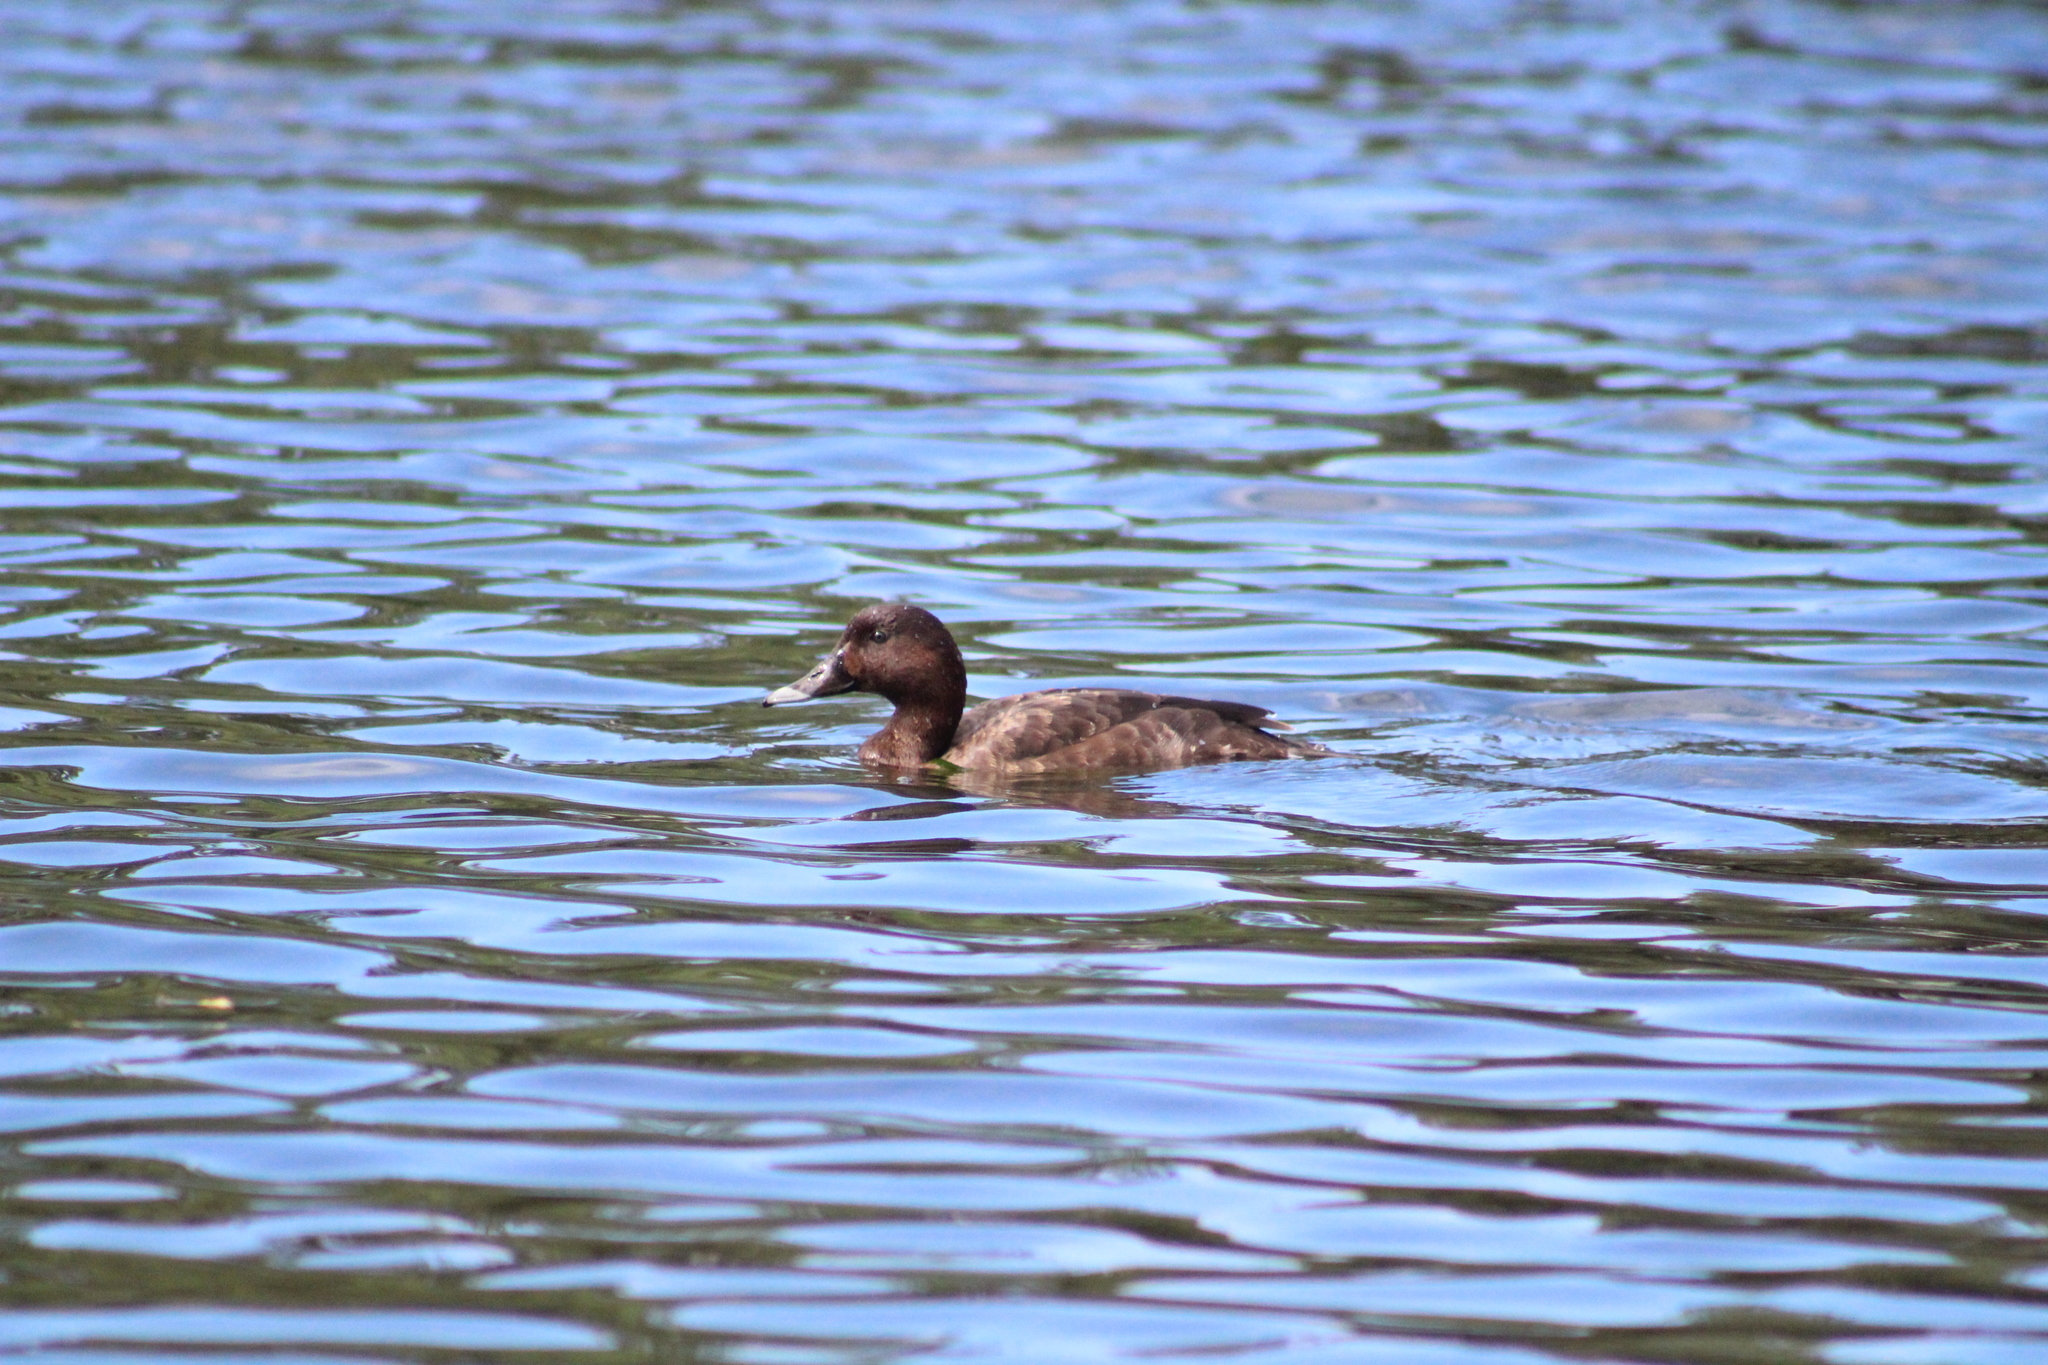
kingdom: Animalia
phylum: Chordata
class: Aves
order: Anseriformes
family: Anatidae
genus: Aythya
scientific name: Aythya australis
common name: Hardhead
